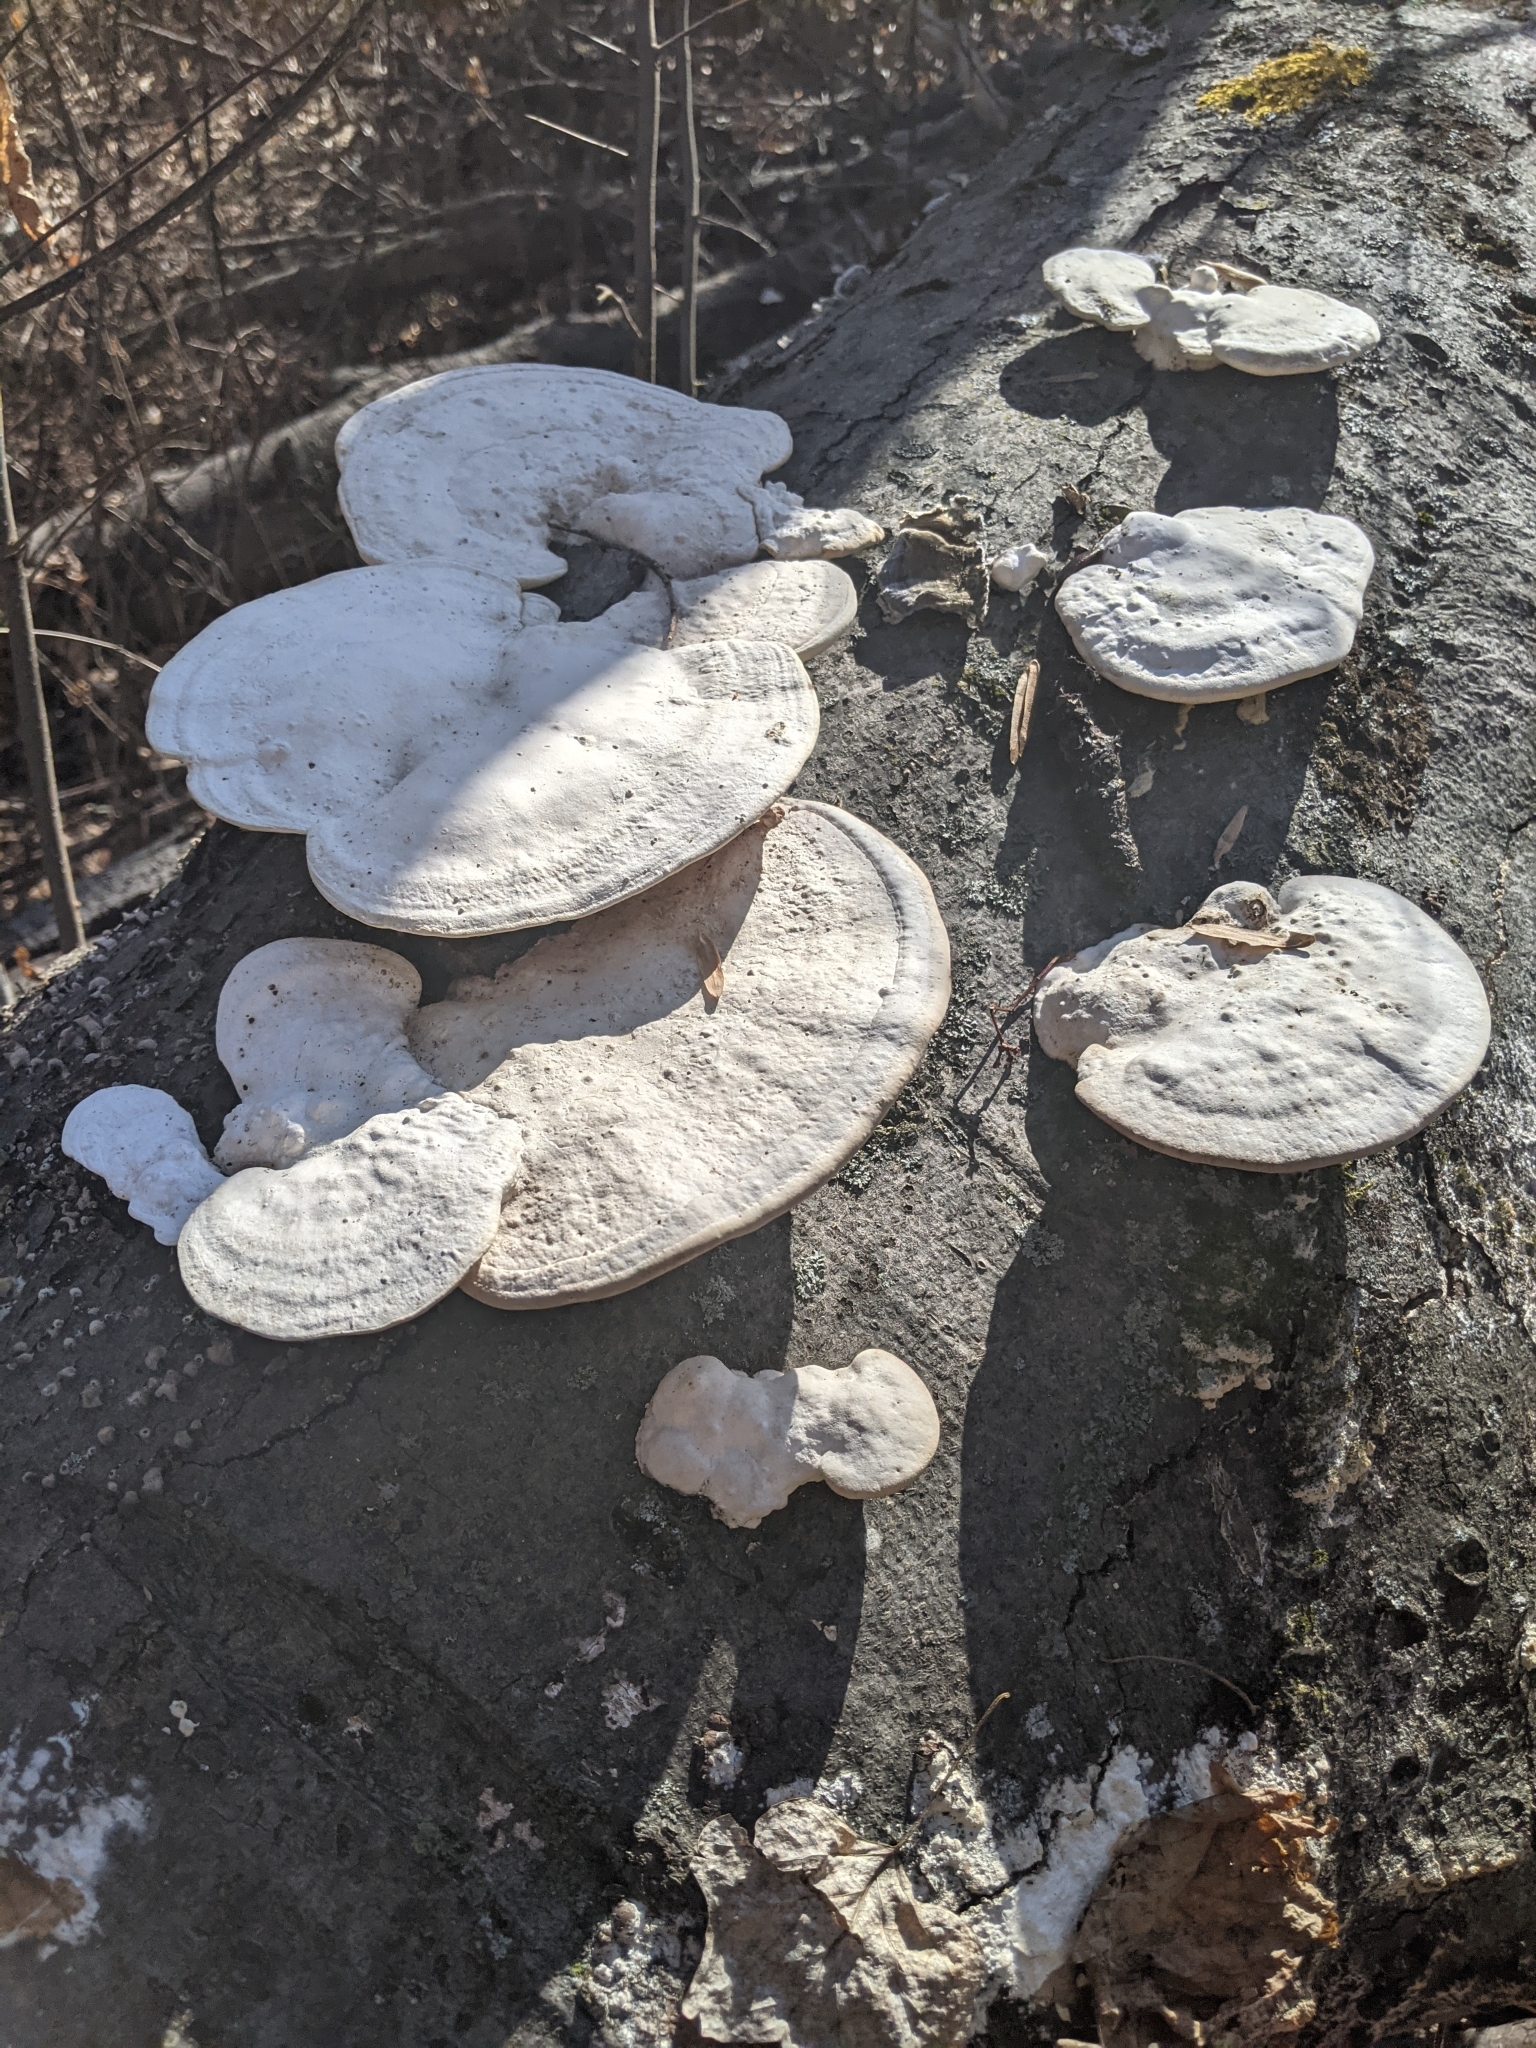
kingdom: Fungi
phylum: Basidiomycota
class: Agaricomycetes
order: Polyporales
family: Polyporaceae
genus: Trametes
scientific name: Trametes
